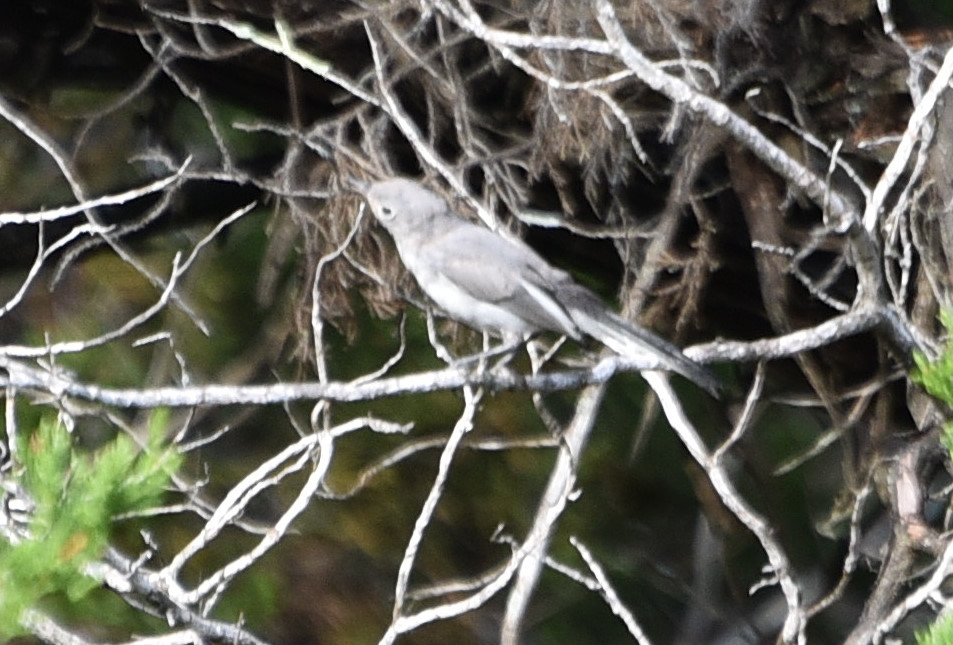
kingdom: Animalia
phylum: Chordata
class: Aves
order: Passeriformes
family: Polioptilidae
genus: Polioptila
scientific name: Polioptila caerulea
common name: Blue-gray gnatcatcher
